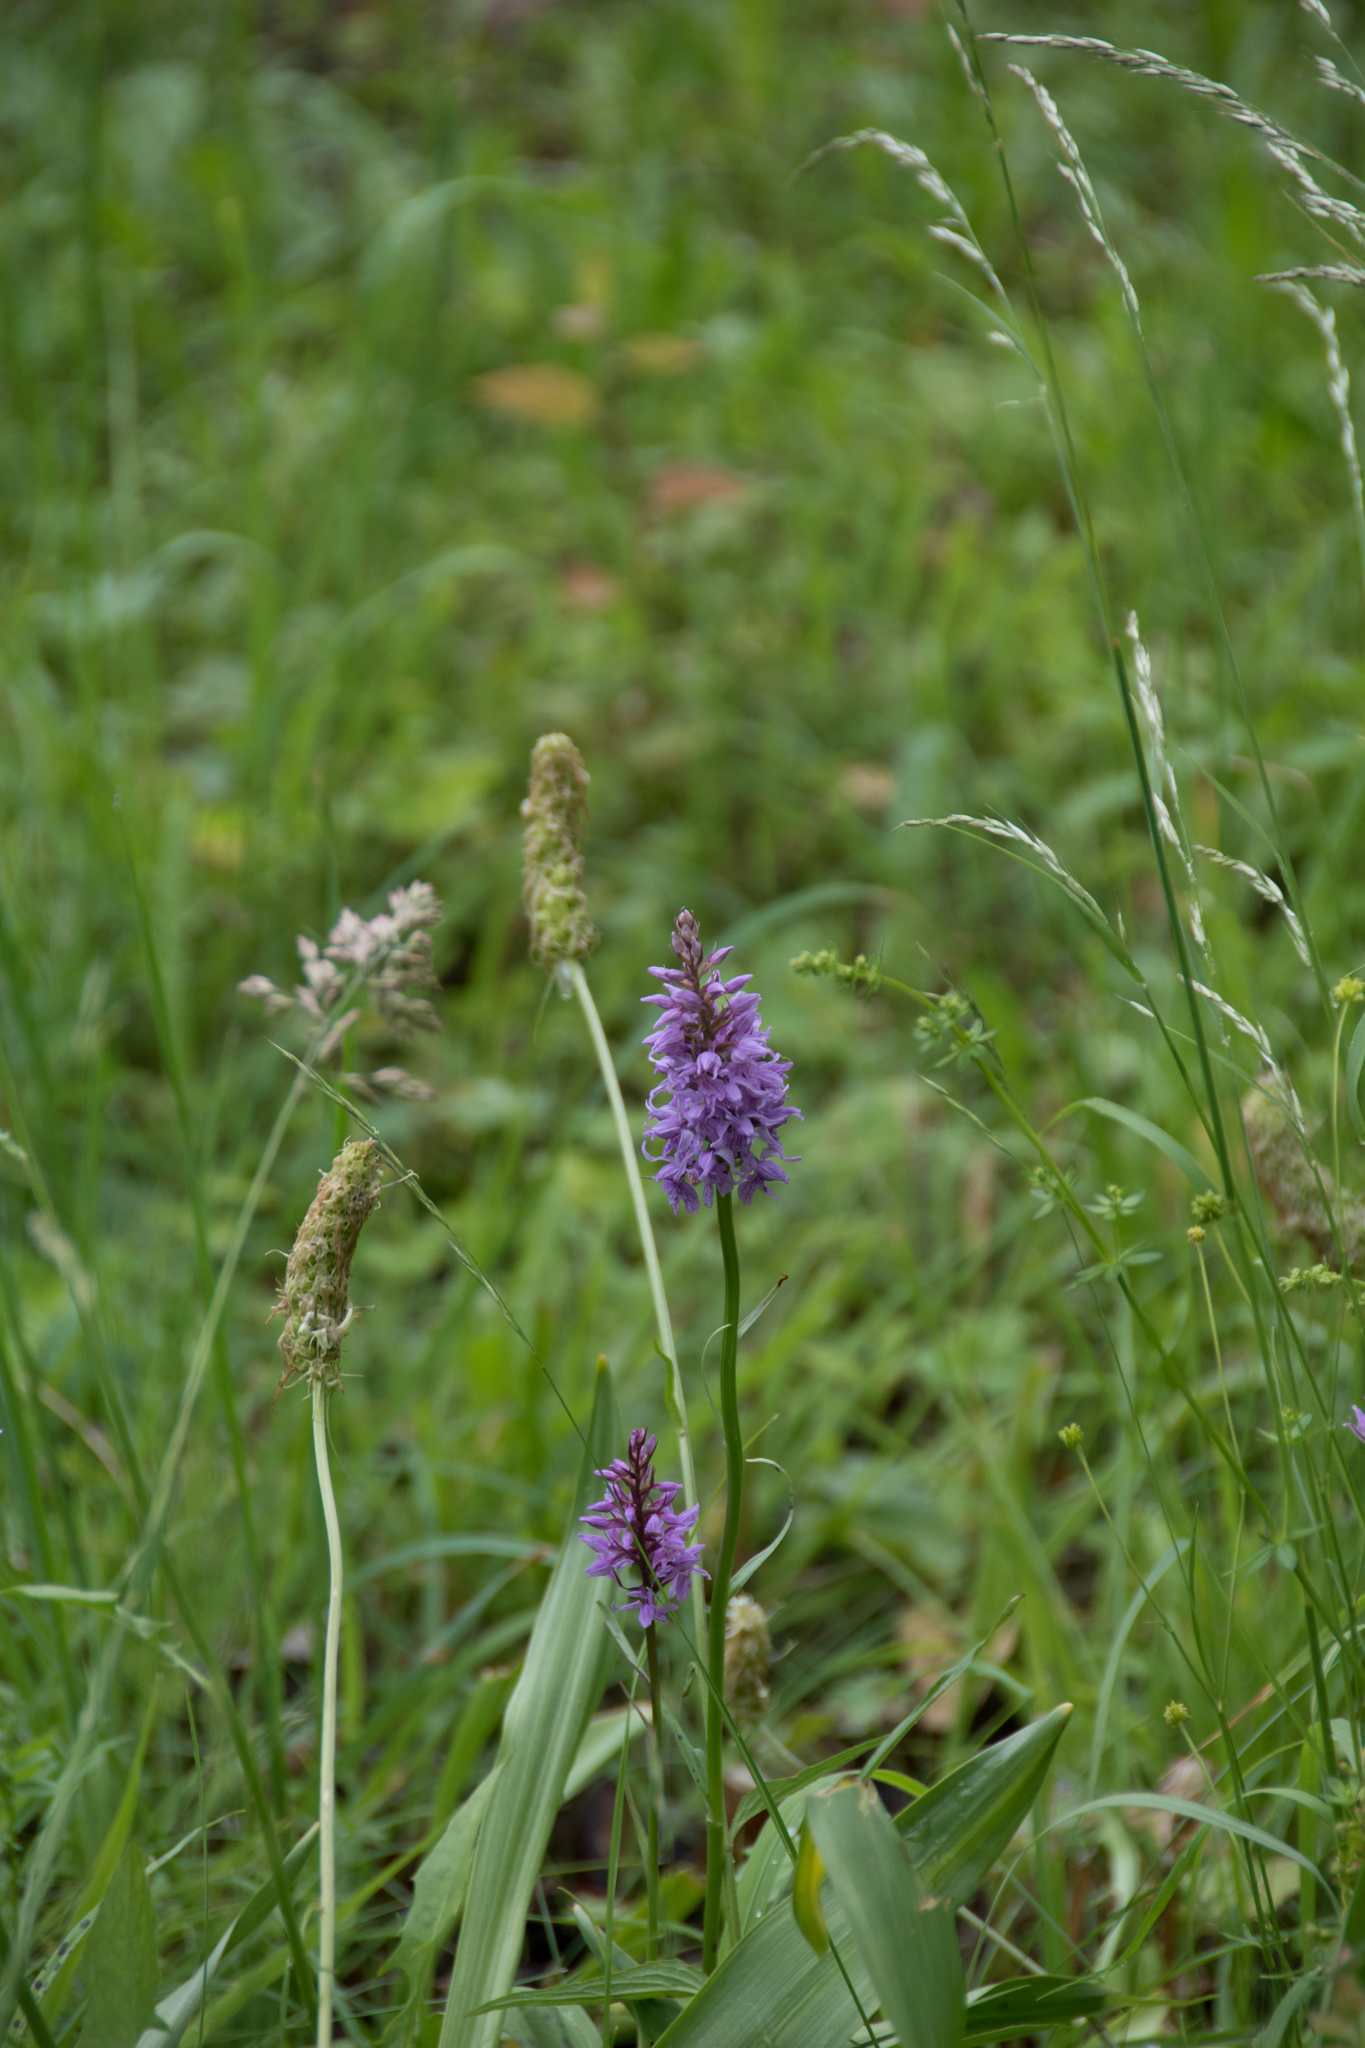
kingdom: Plantae
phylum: Tracheophyta
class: Liliopsida
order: Asparagales
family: Orchidaceae
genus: Dactylorhiza
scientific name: Dactylorhiza maculata
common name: Heath spotted-orchid
